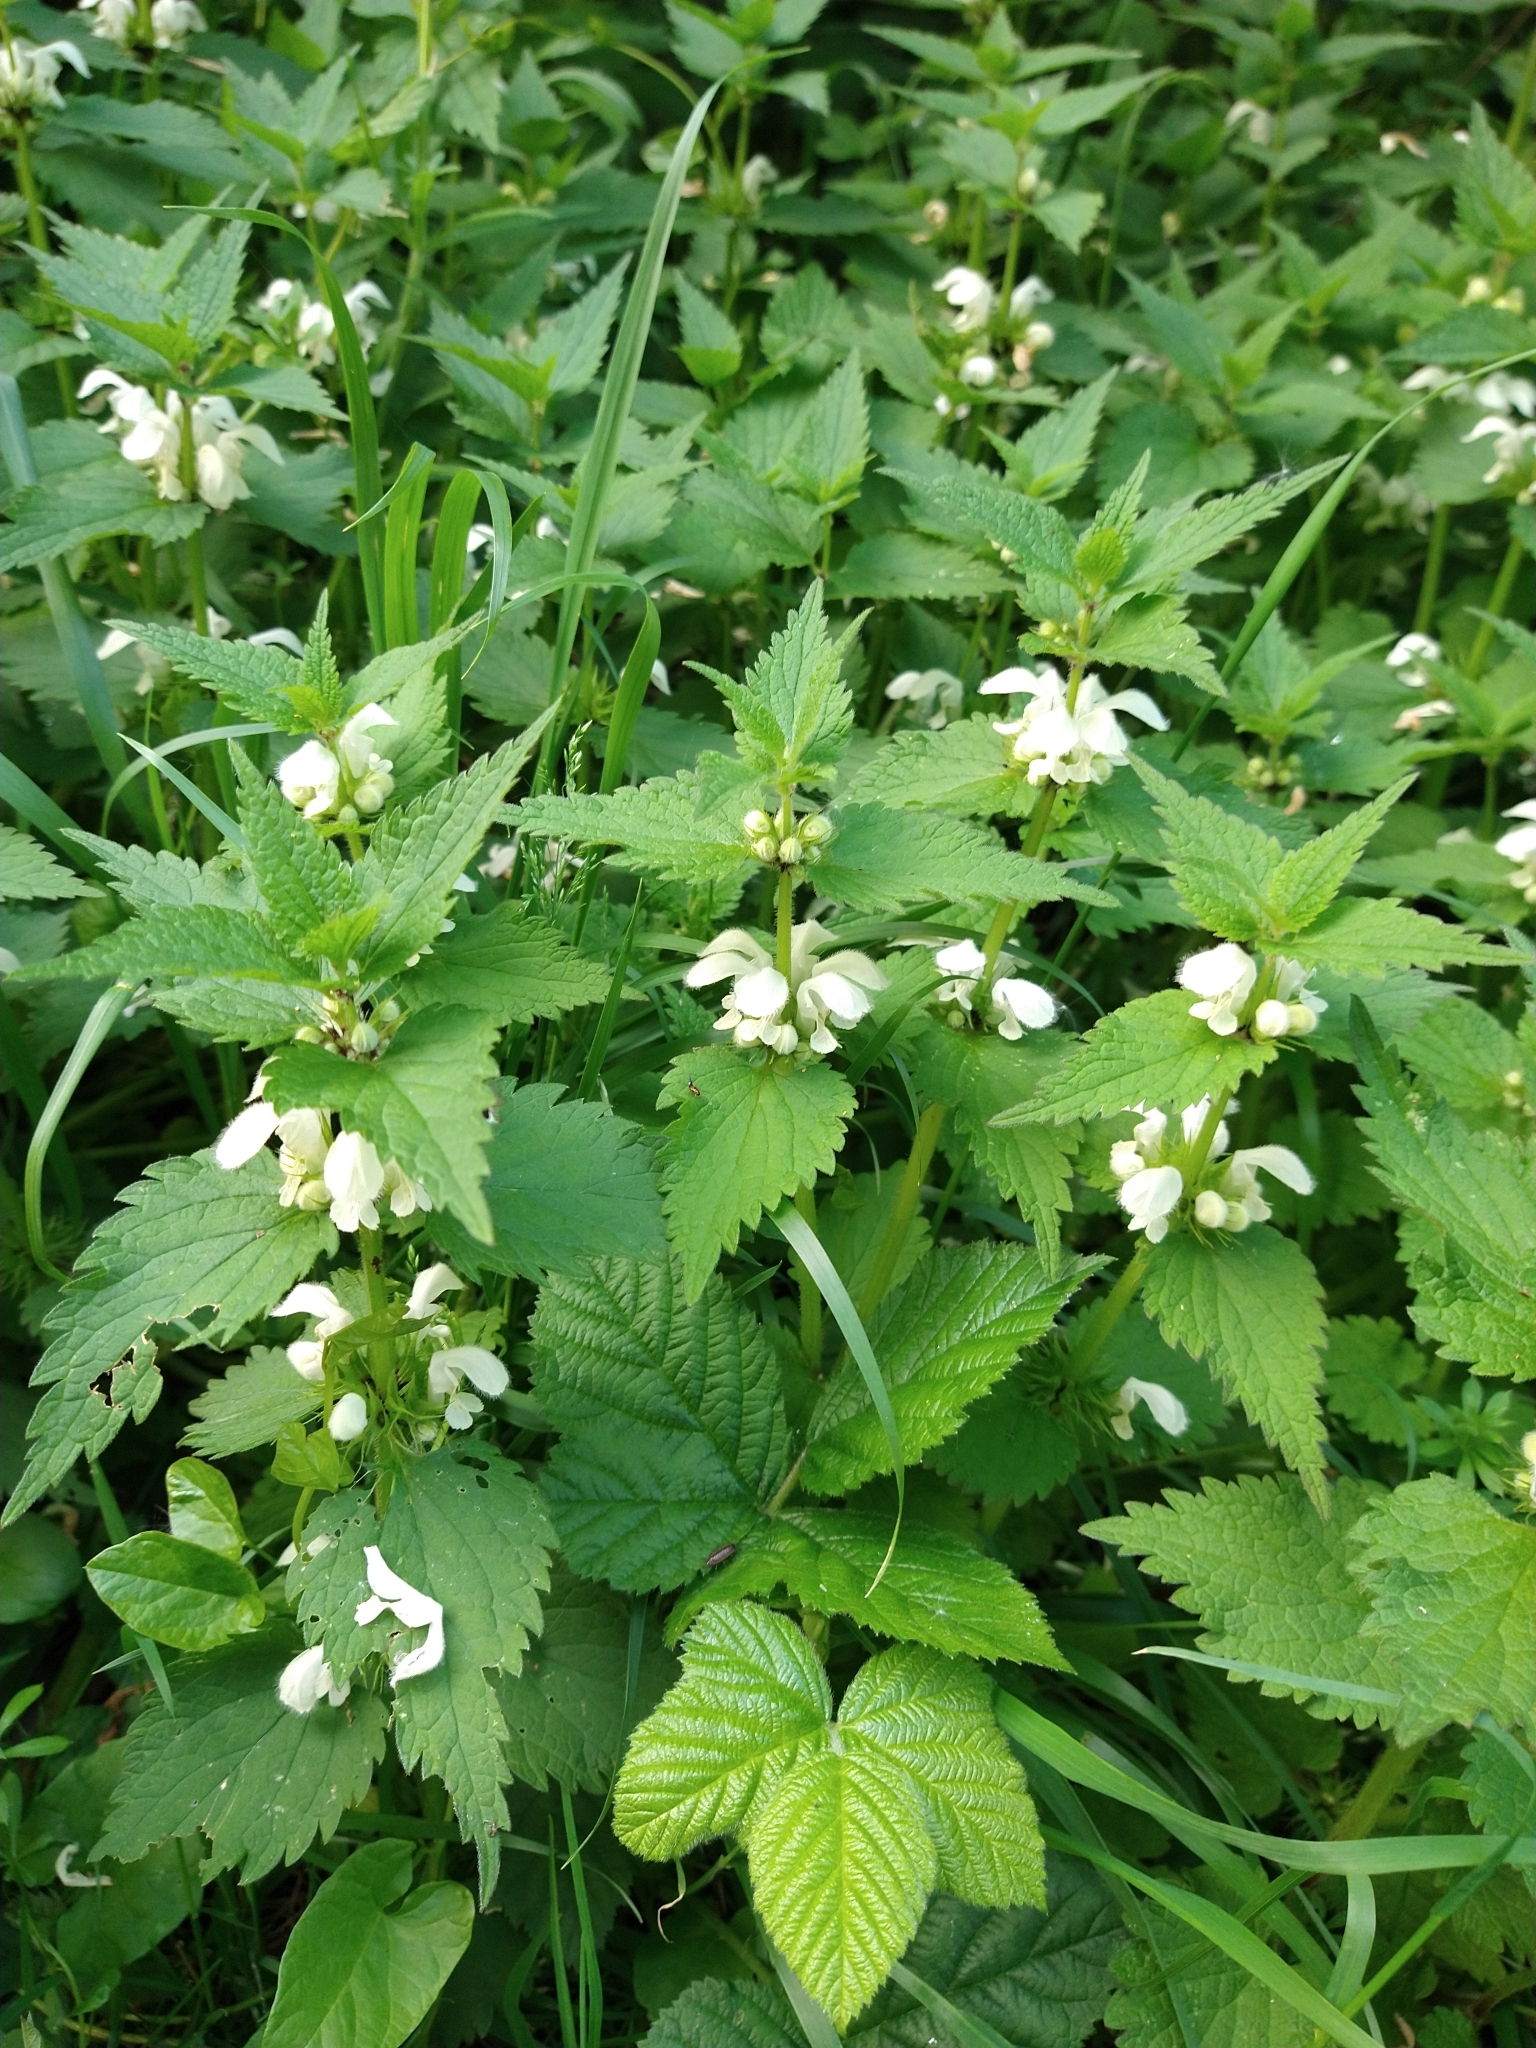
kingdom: Plantae
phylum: Tracheophyta
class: Magnoliopsida
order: Lamiales
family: Lamiaceae
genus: Lamium
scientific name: Lamium album
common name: White dead-nettle
